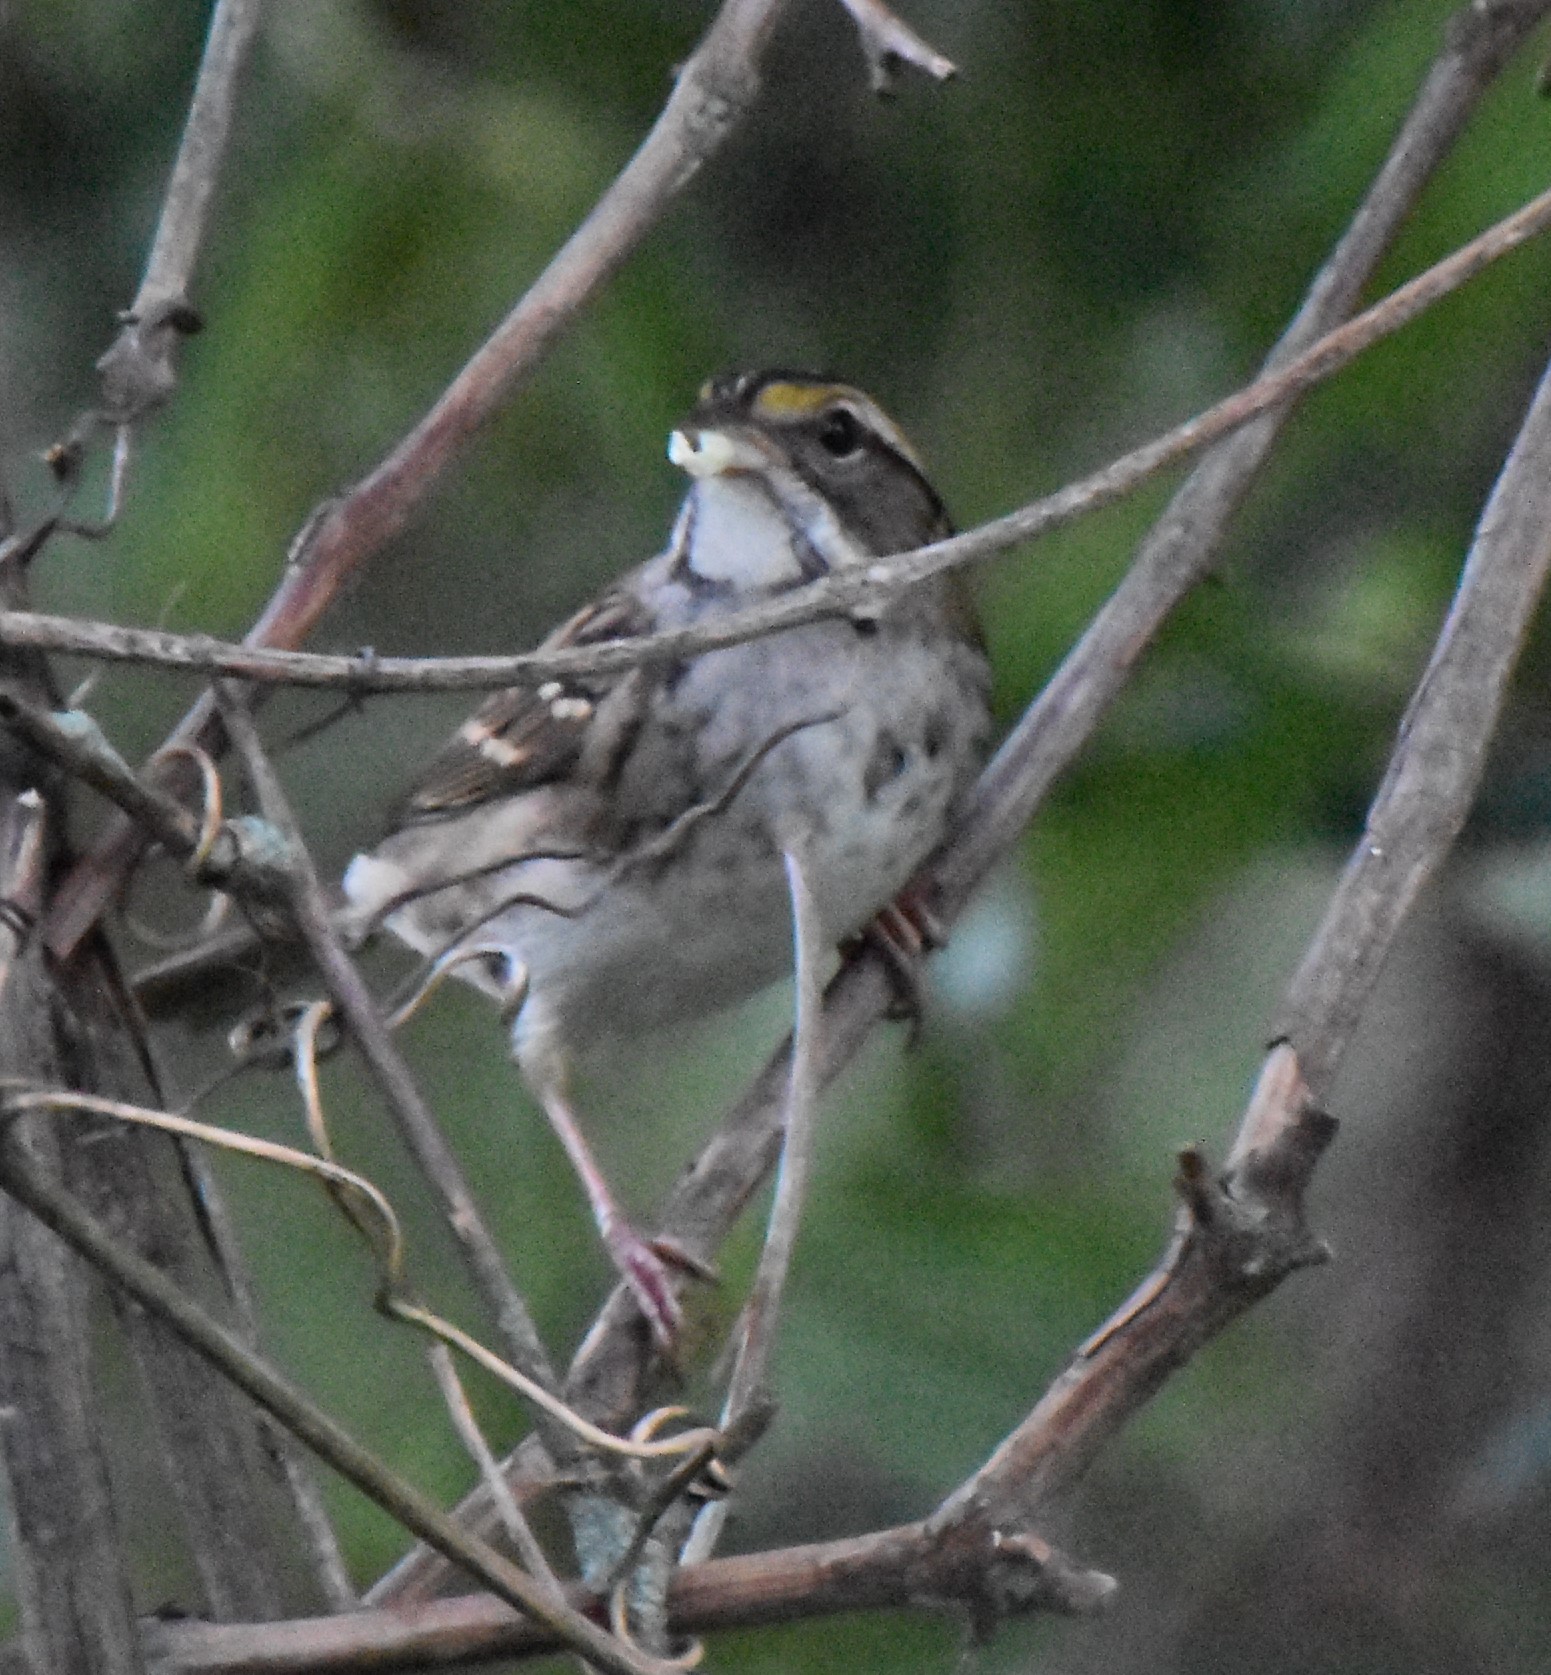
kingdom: Animalia
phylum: Chordata
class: Aves
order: Passeriformes
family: Passerellidae
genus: Zonotrichia
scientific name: Zonotrichia albicollis
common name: White-throated sparrow
